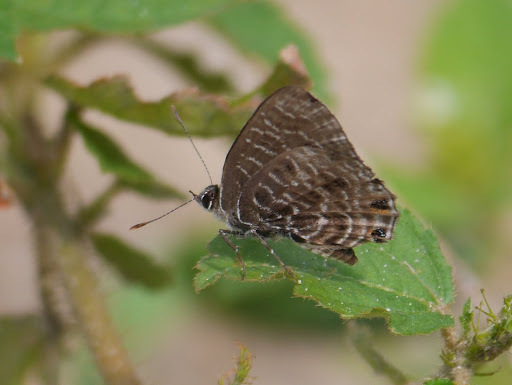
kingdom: Animalia
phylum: Arthropoda
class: Insecta
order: Lepidoptera
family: Lycaenidae
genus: Anthene
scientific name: Anthene larydas
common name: Forest hairtail
